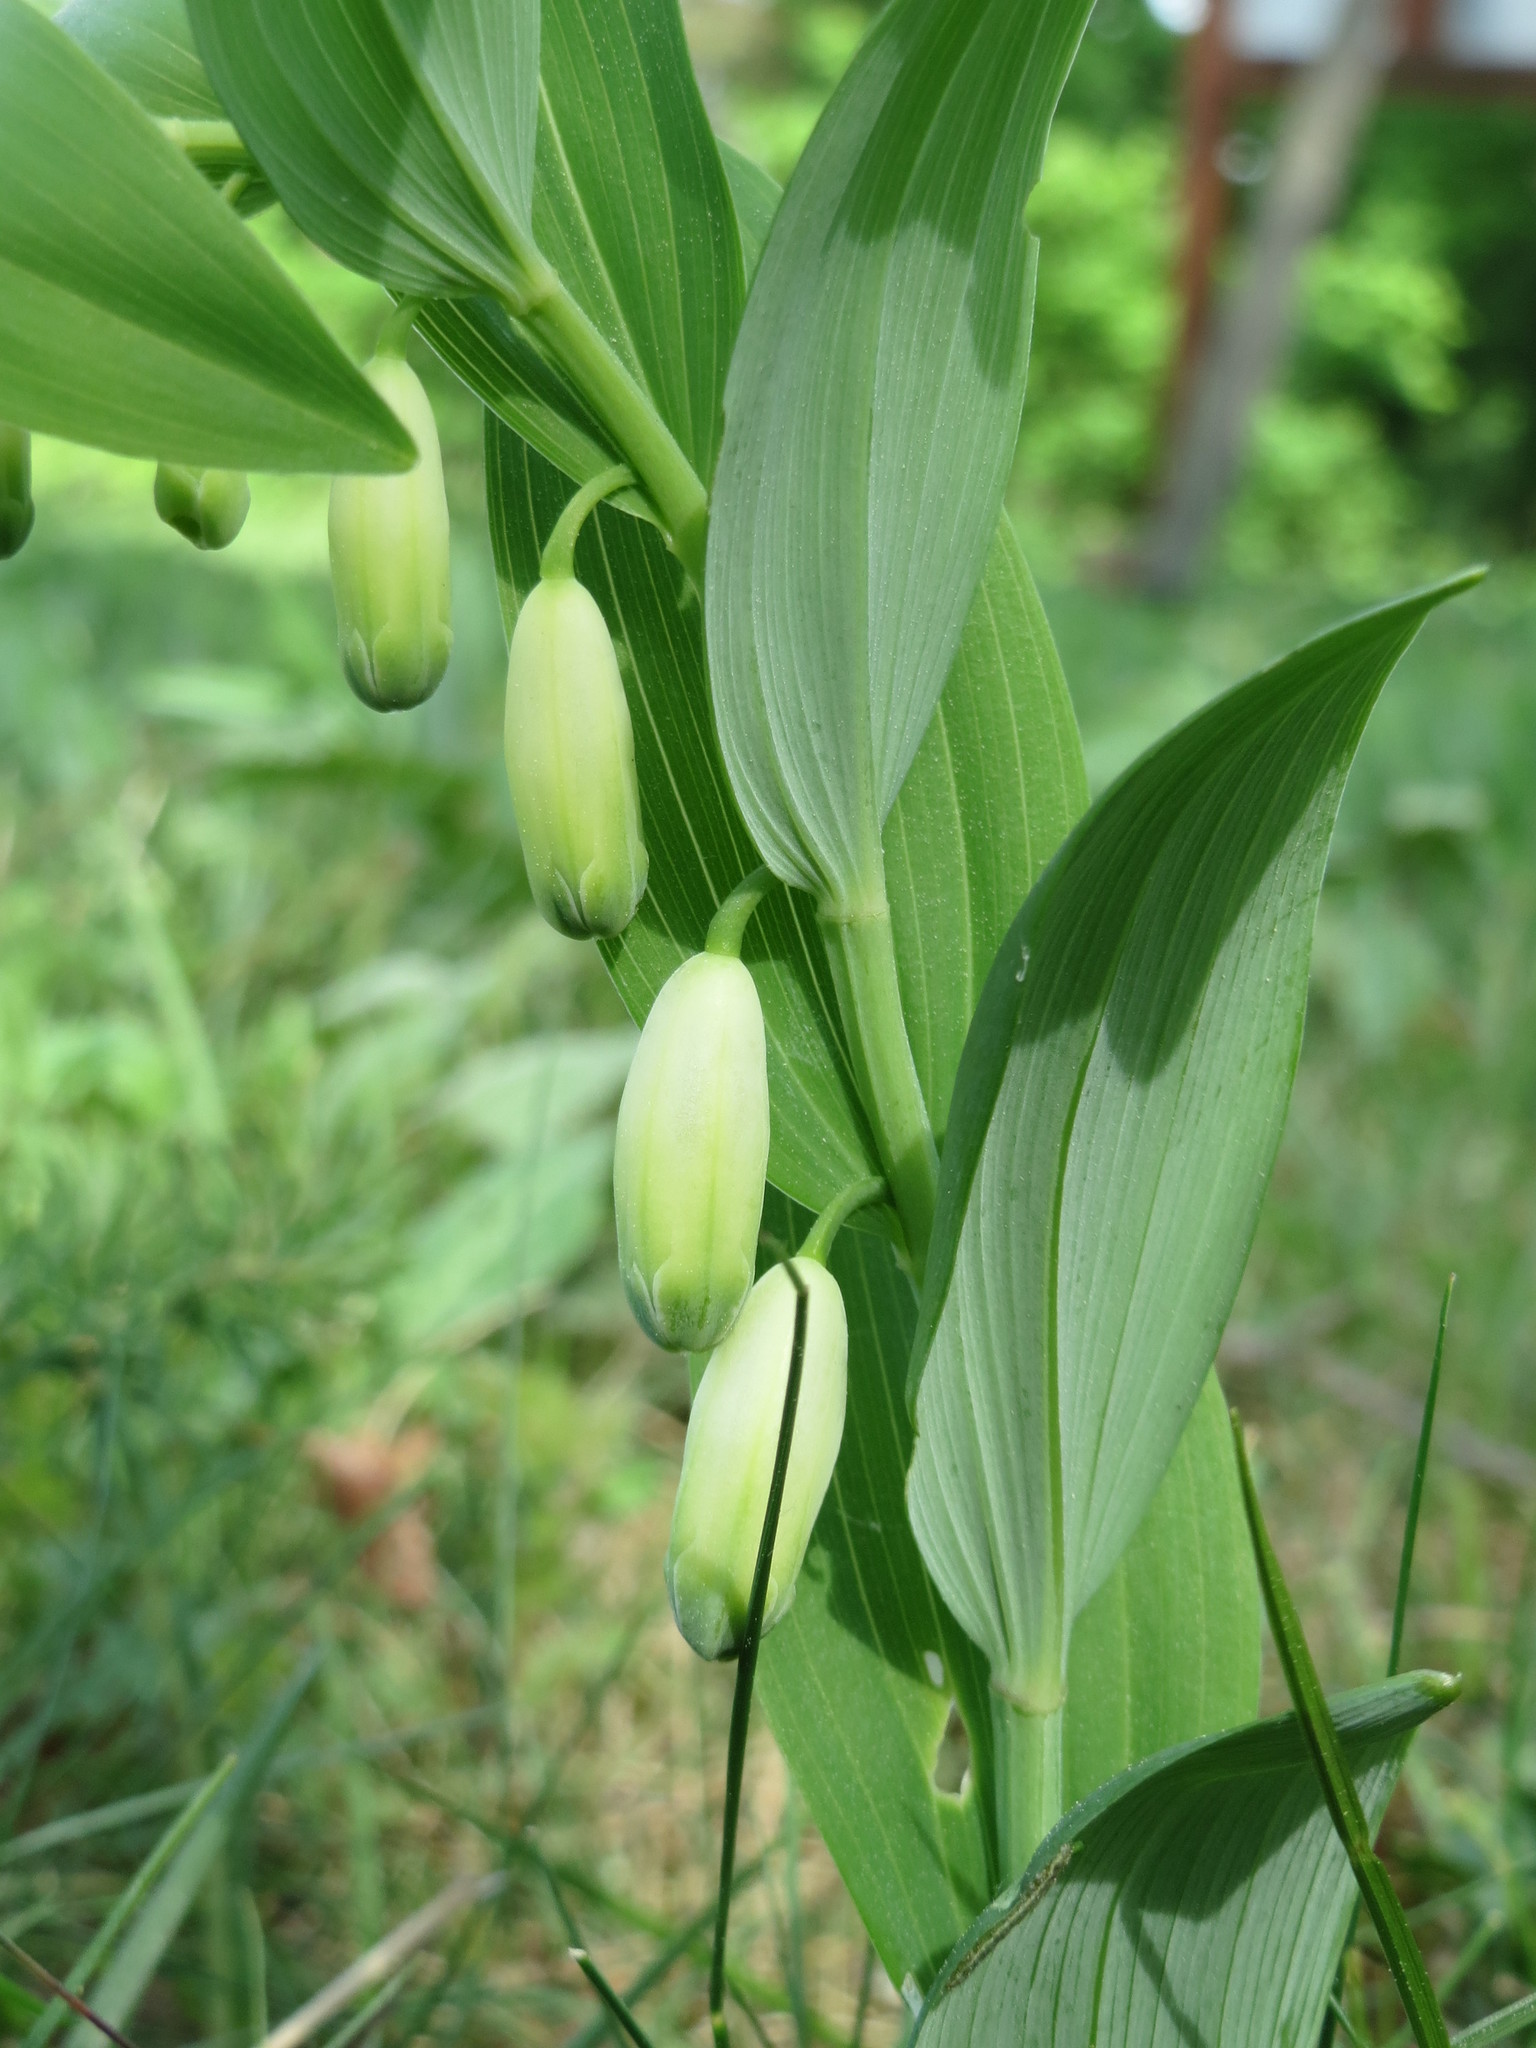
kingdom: Plantae
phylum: Tracheophyta
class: Liliopsida
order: Asparagales
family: Asparagaceae
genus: Polygonatum
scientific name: Polygonatum odoratum
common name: Angular solomon's-seal
